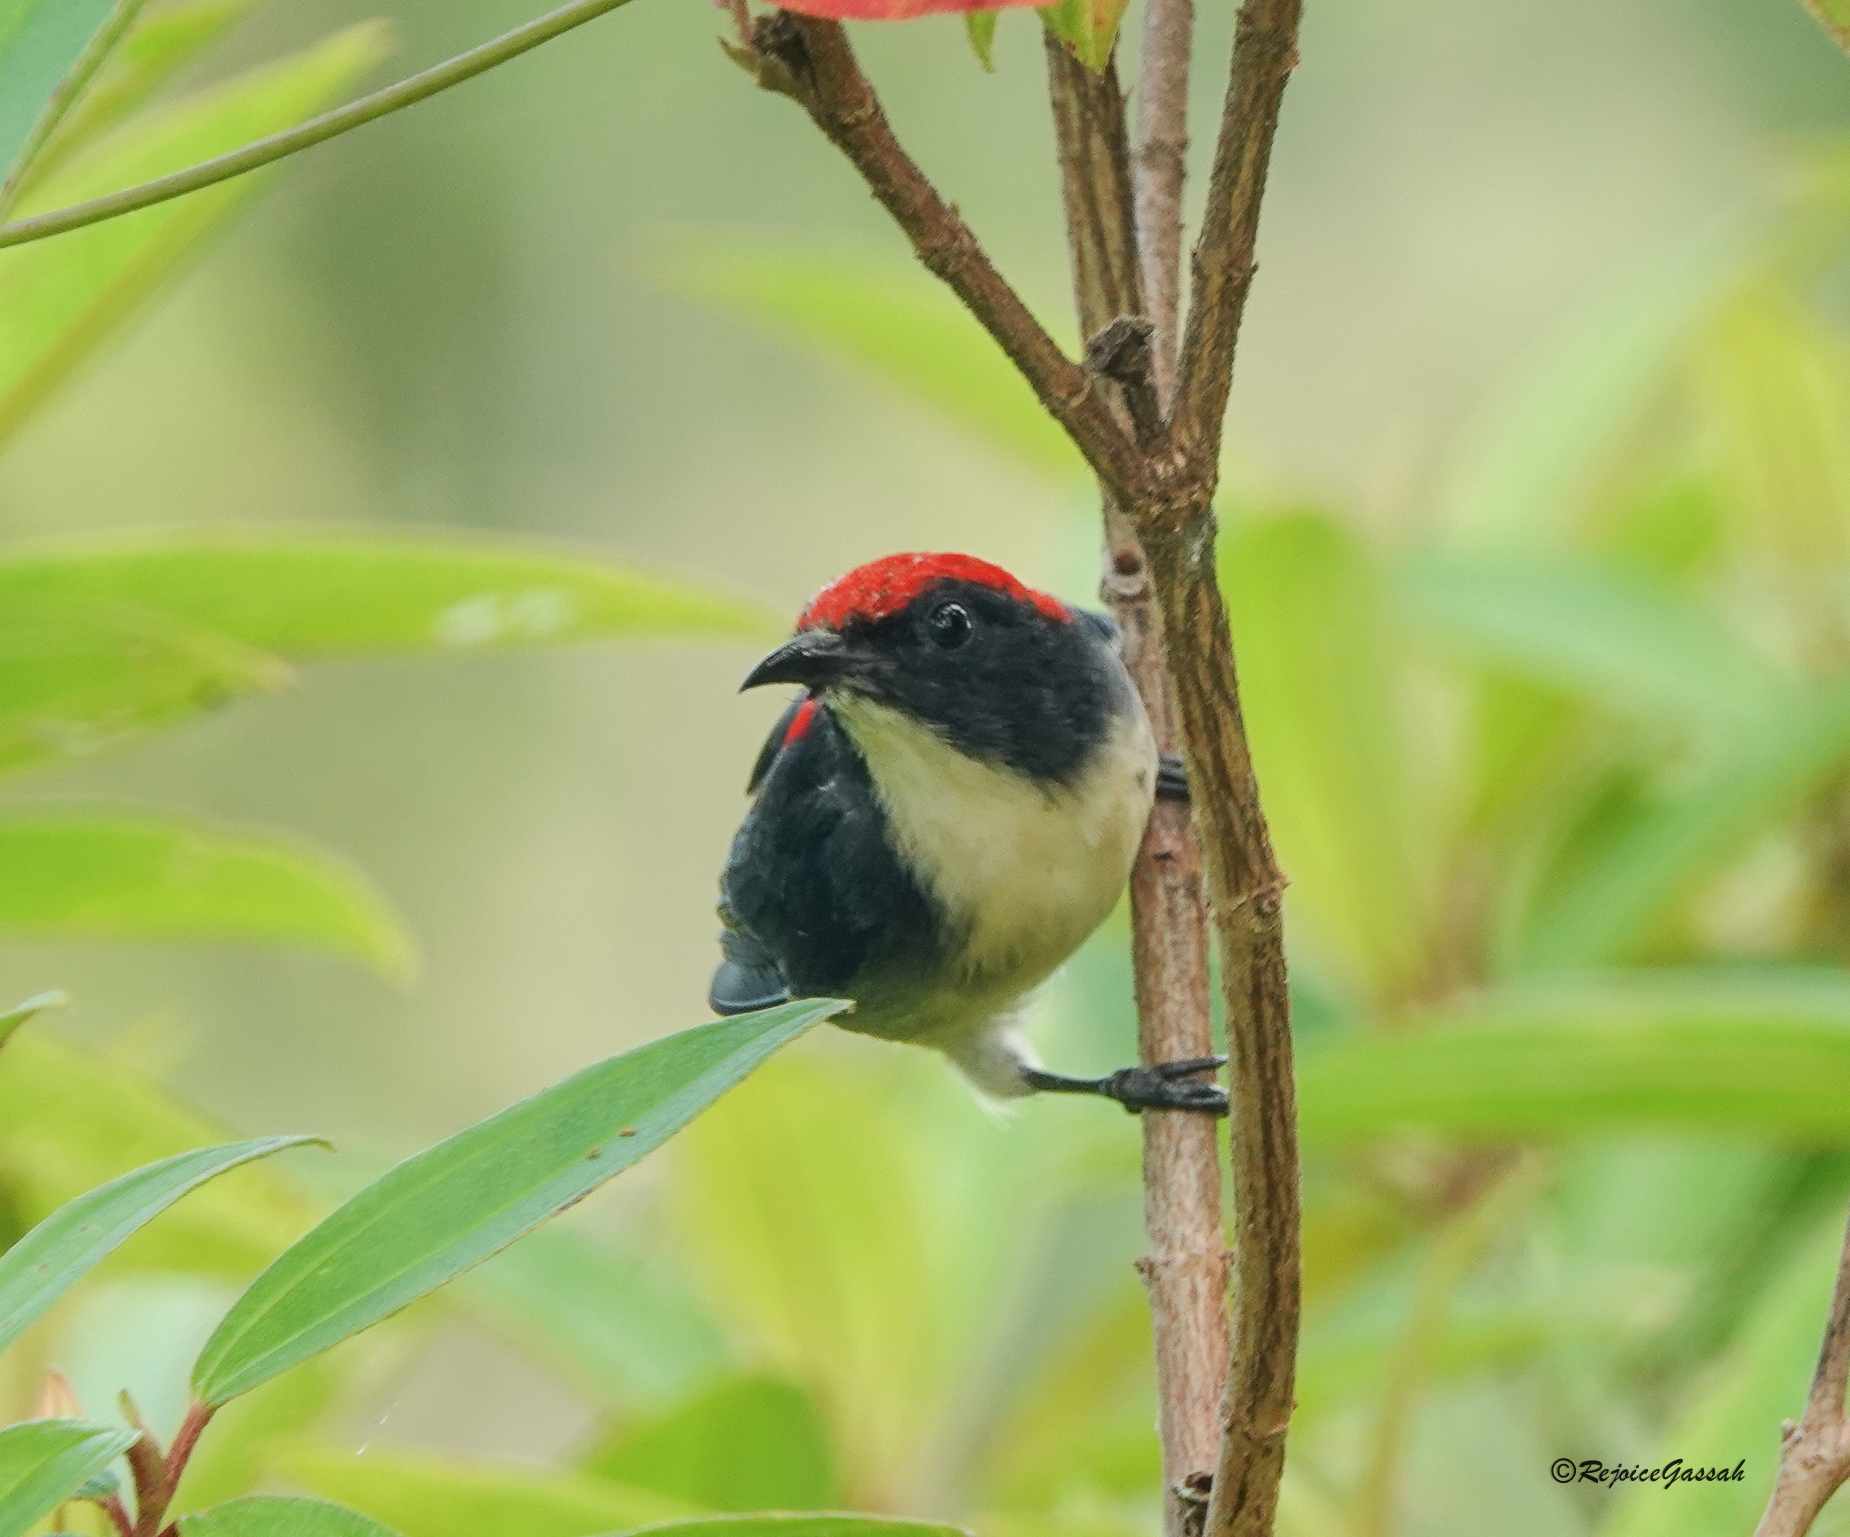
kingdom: Animalia
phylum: Chordata
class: Aves
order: Passeriformes
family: Dicaeidae
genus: Dicaeum
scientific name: Dicaeum cruentatum
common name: Scarlet-backed flowerpecker
